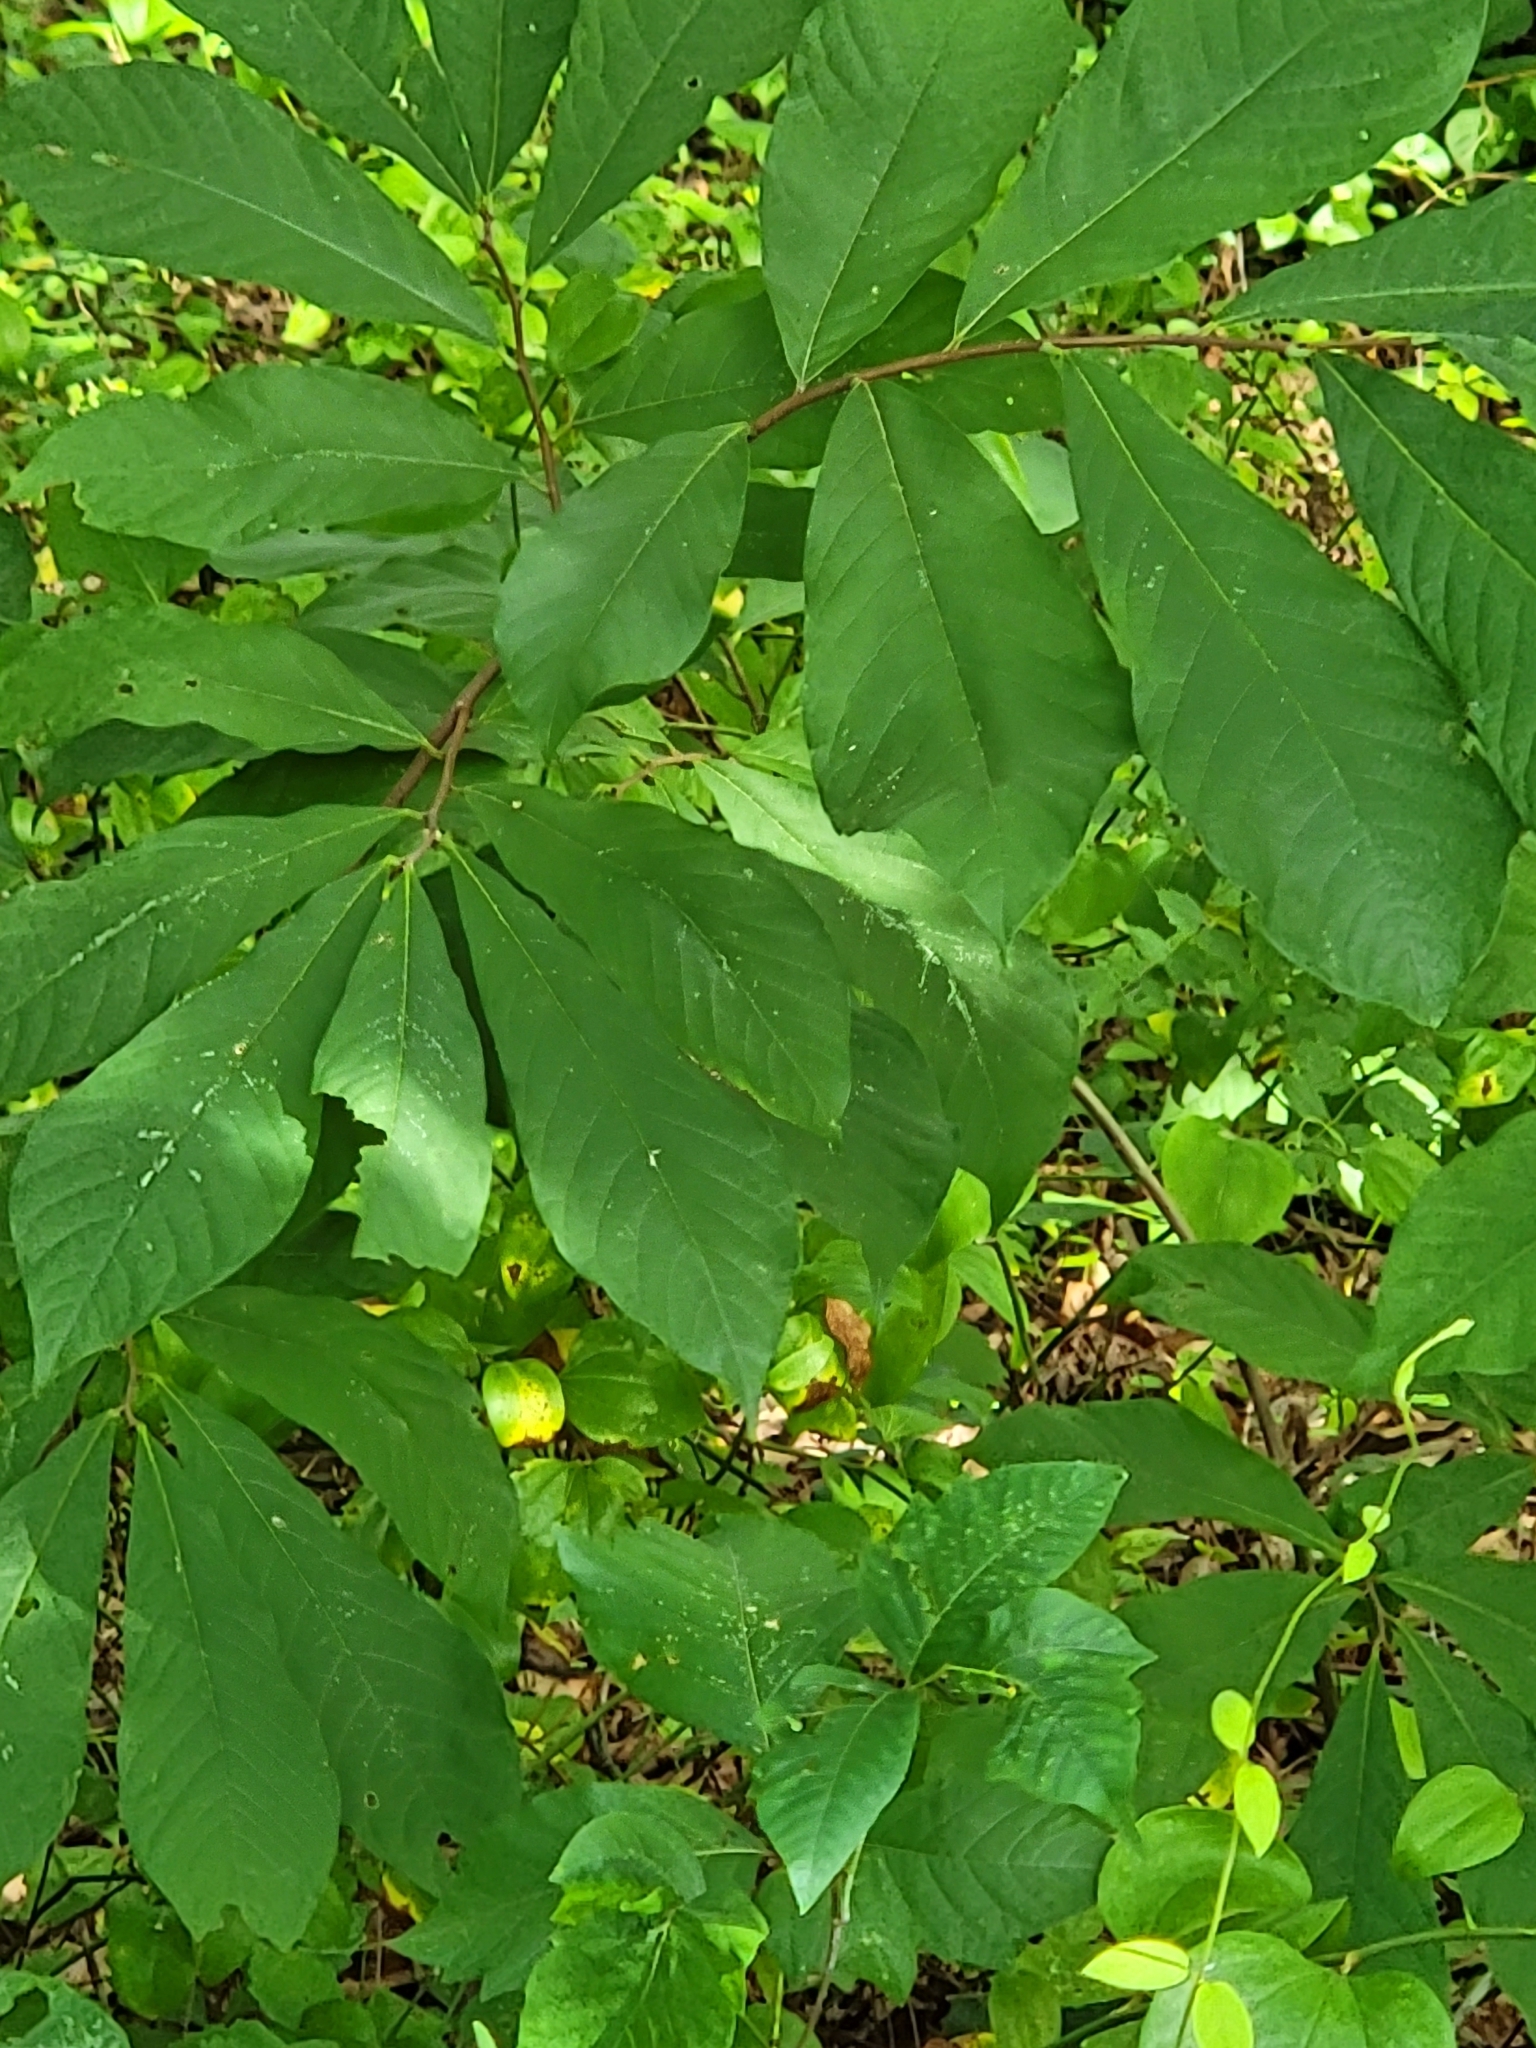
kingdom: Plantae
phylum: Tracheophyta
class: Magnoliopsida
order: Magnoliales
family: Annonaceae
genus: Asimina
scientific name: Asimina triloba
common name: Dog-banana
